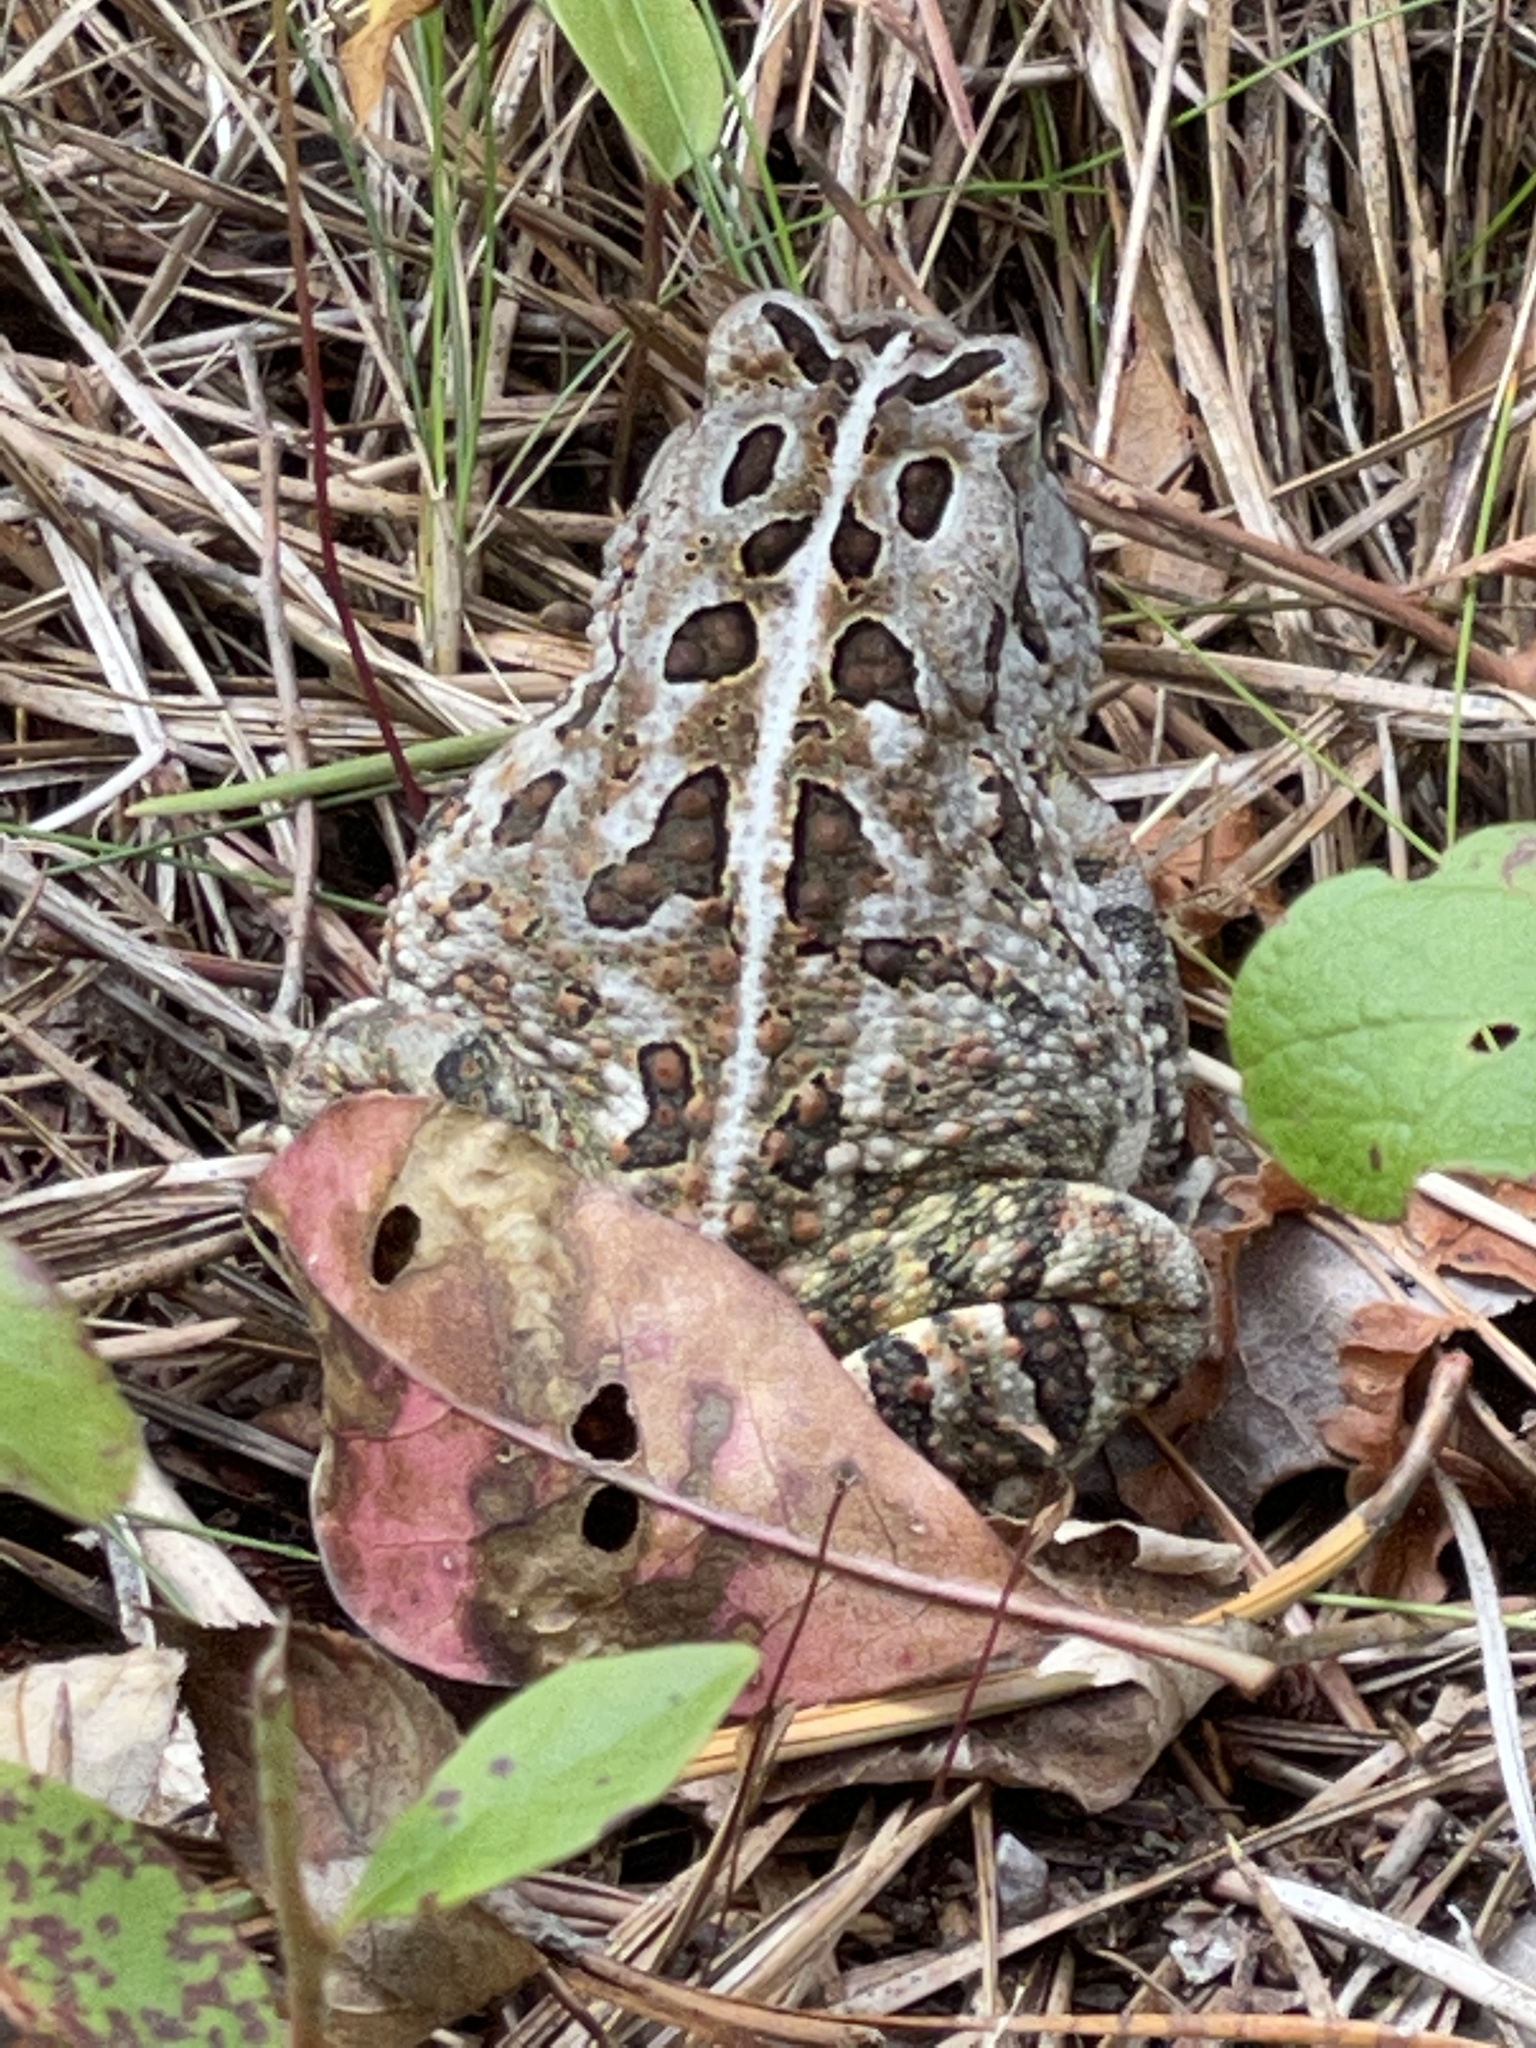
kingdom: Animalia
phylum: Chordata
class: Amphibia
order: Anura
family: Bufonidae
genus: Anaxyrus
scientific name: Anaxyrus fowleri
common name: Fowler's toad
